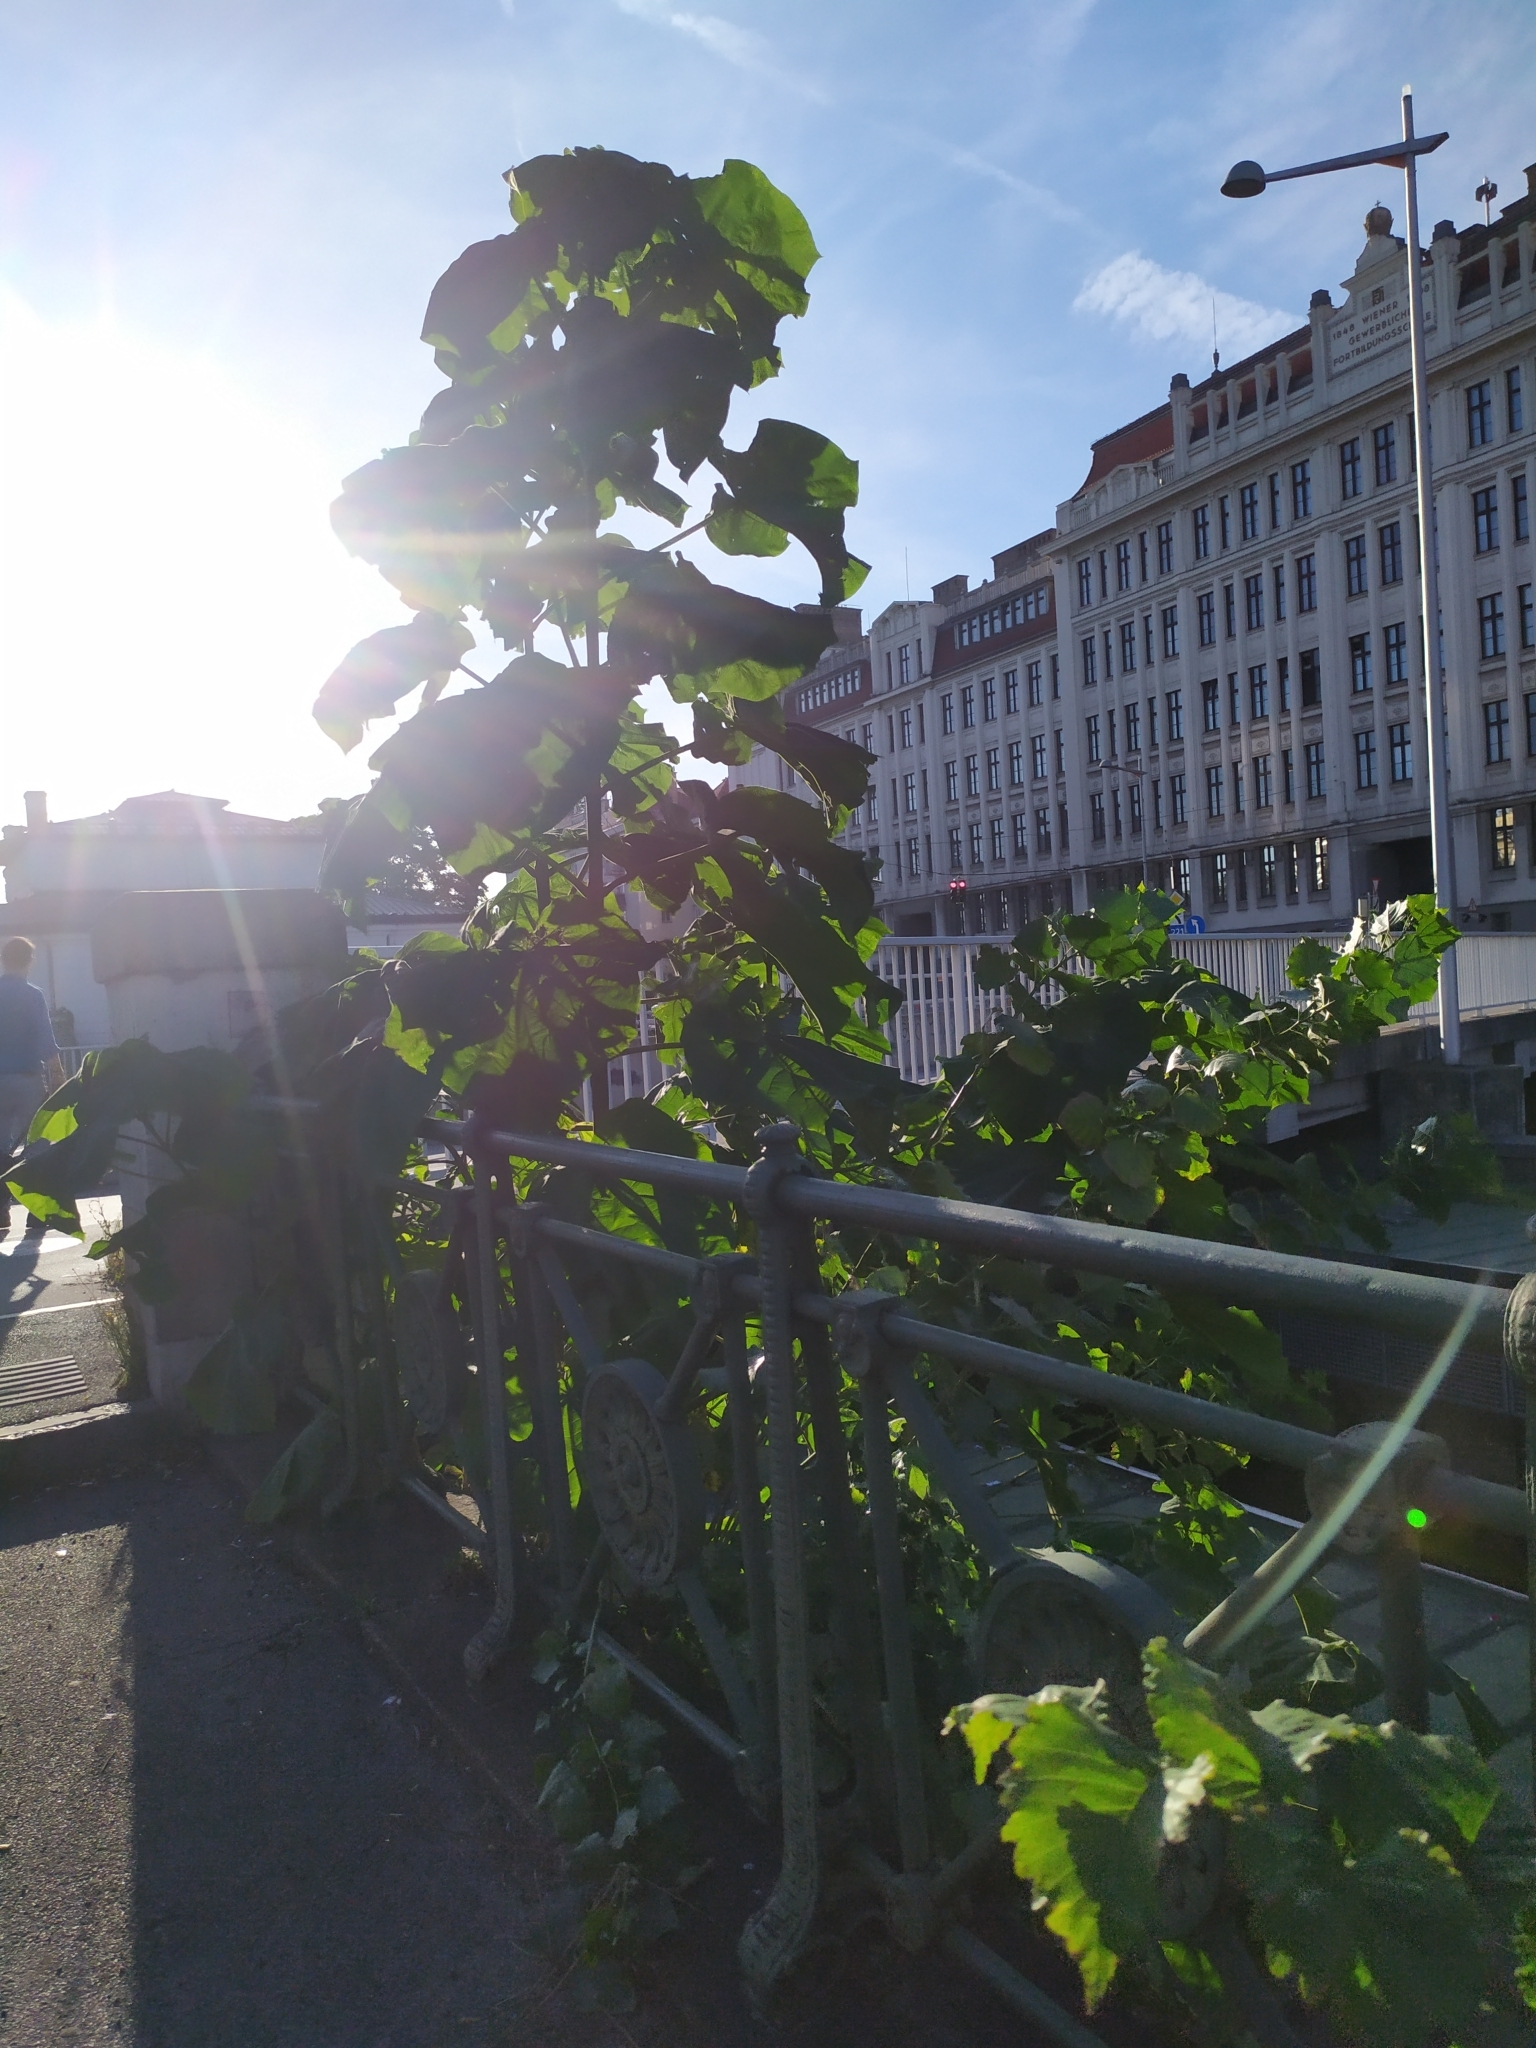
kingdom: Plantae
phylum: Tracheophyta
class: Magnoliopsida
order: Lamiales
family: Paulowniaceae
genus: Paulownia
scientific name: Paulownia tomentosa
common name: Foxglove-tree
